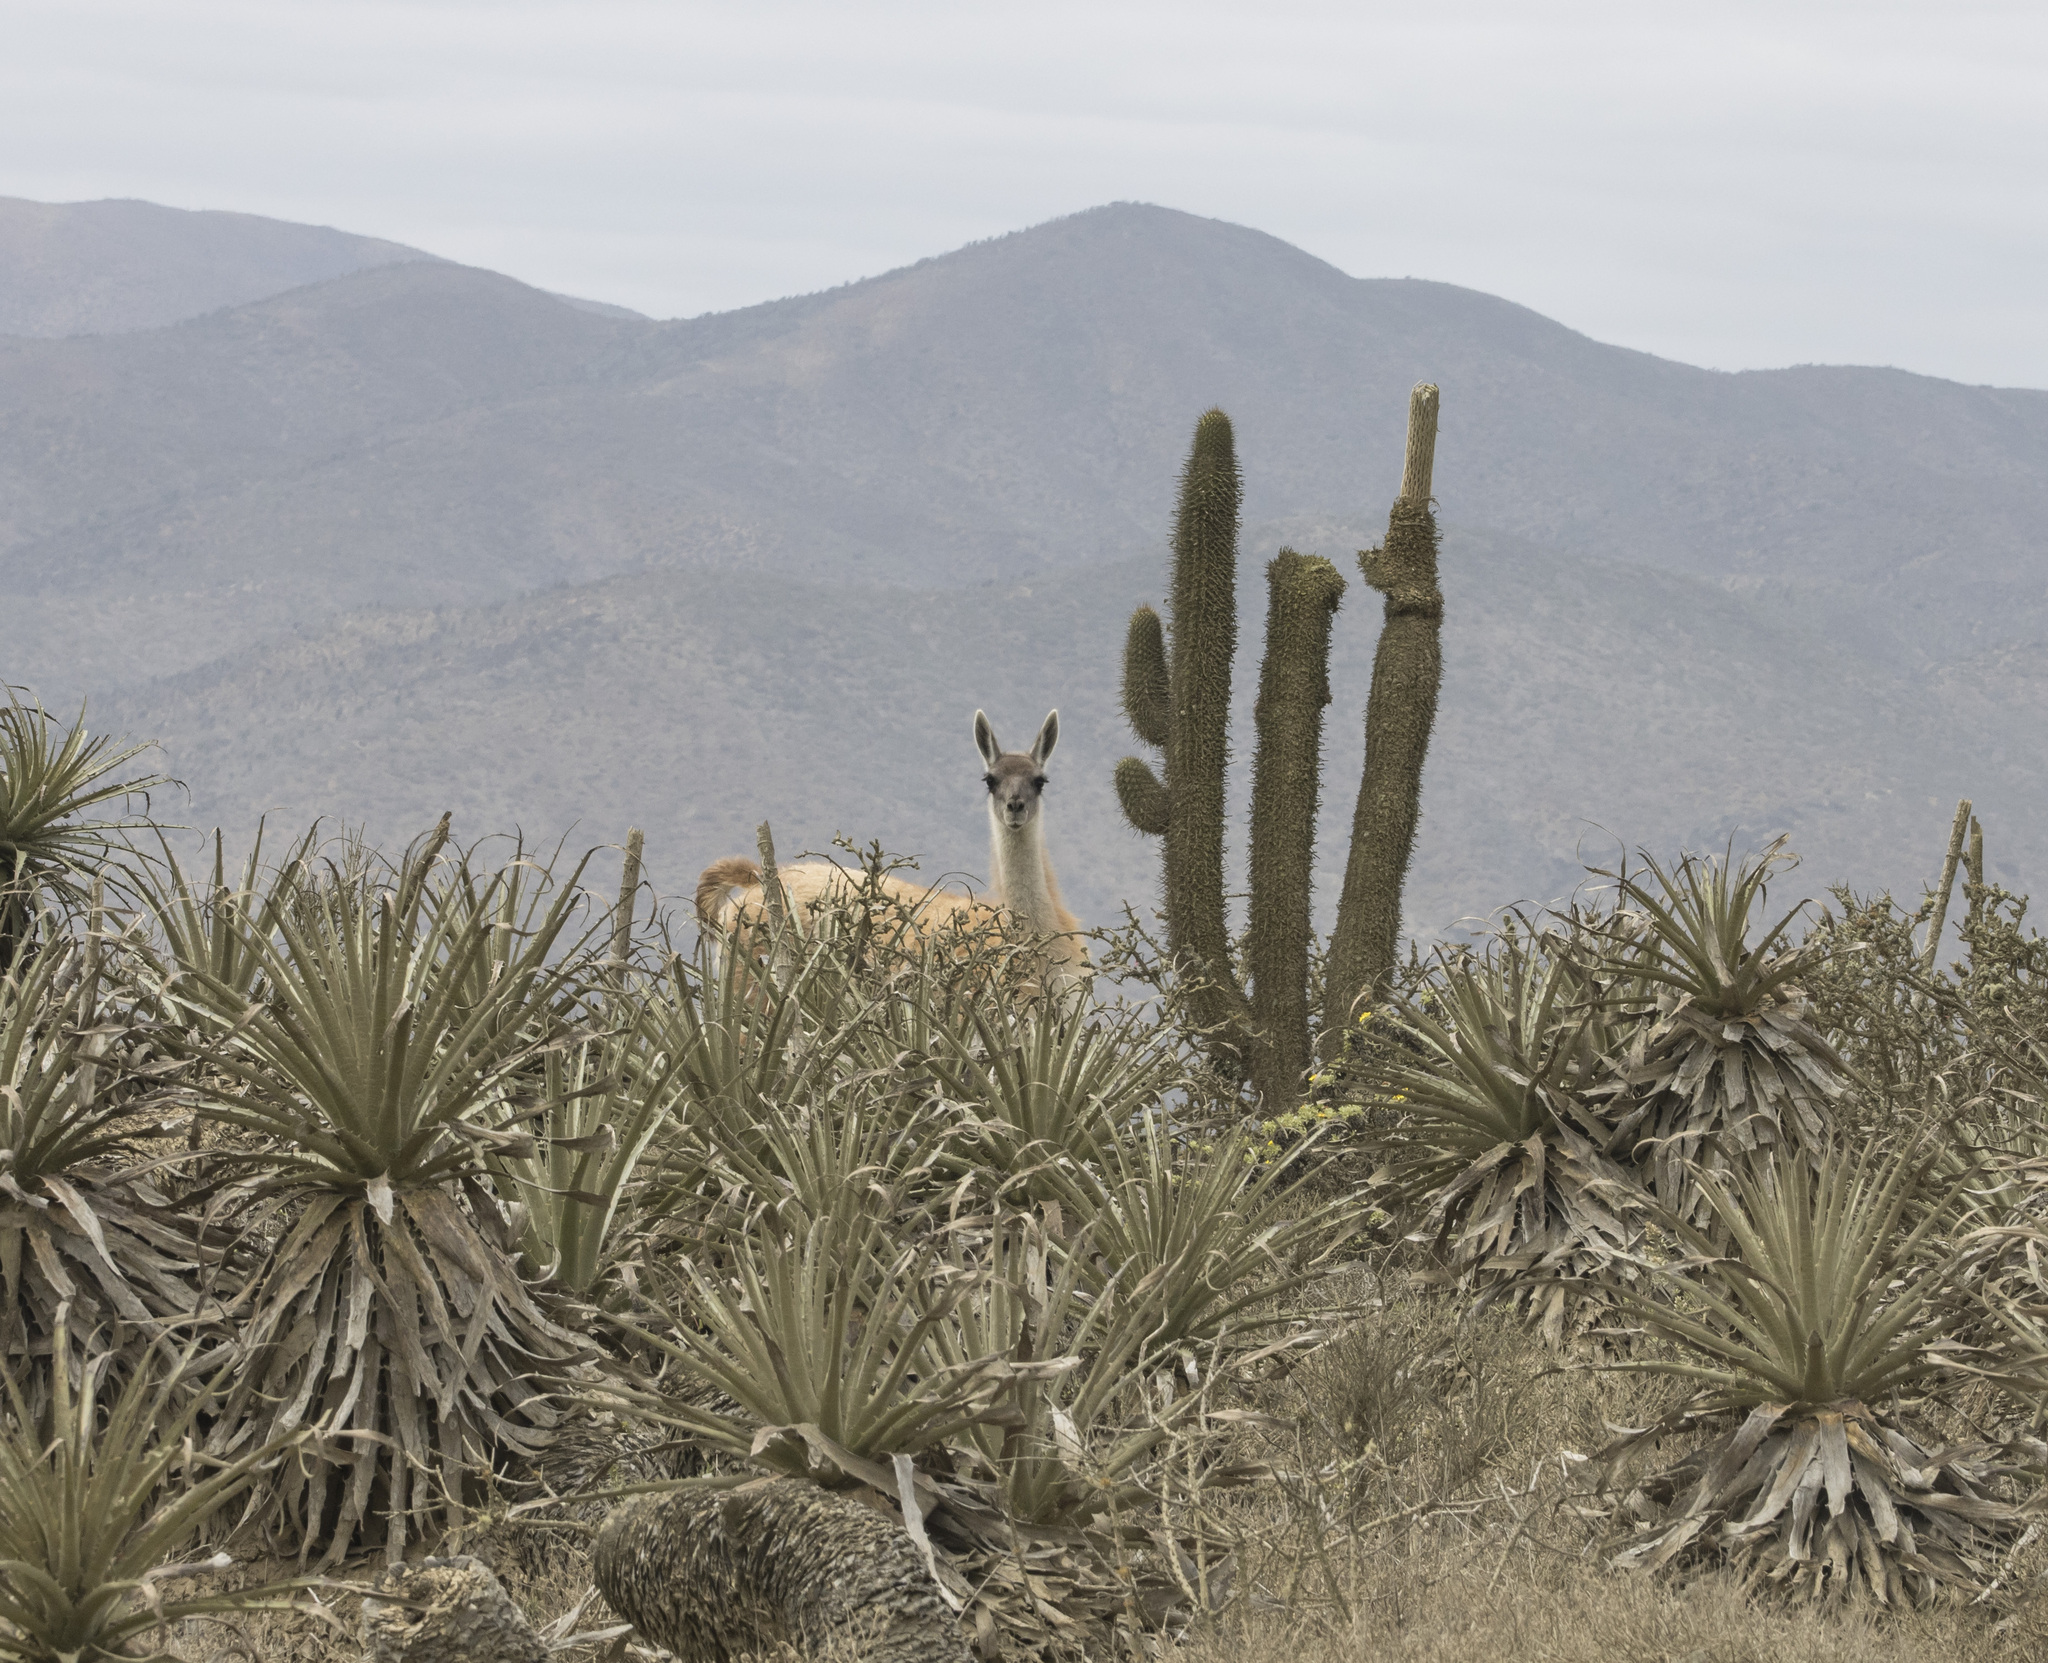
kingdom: Animalia
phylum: Chordata
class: Mammalia
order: Artiodactyla
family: Camelidae
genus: Lama
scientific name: Lama glama
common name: Llama
